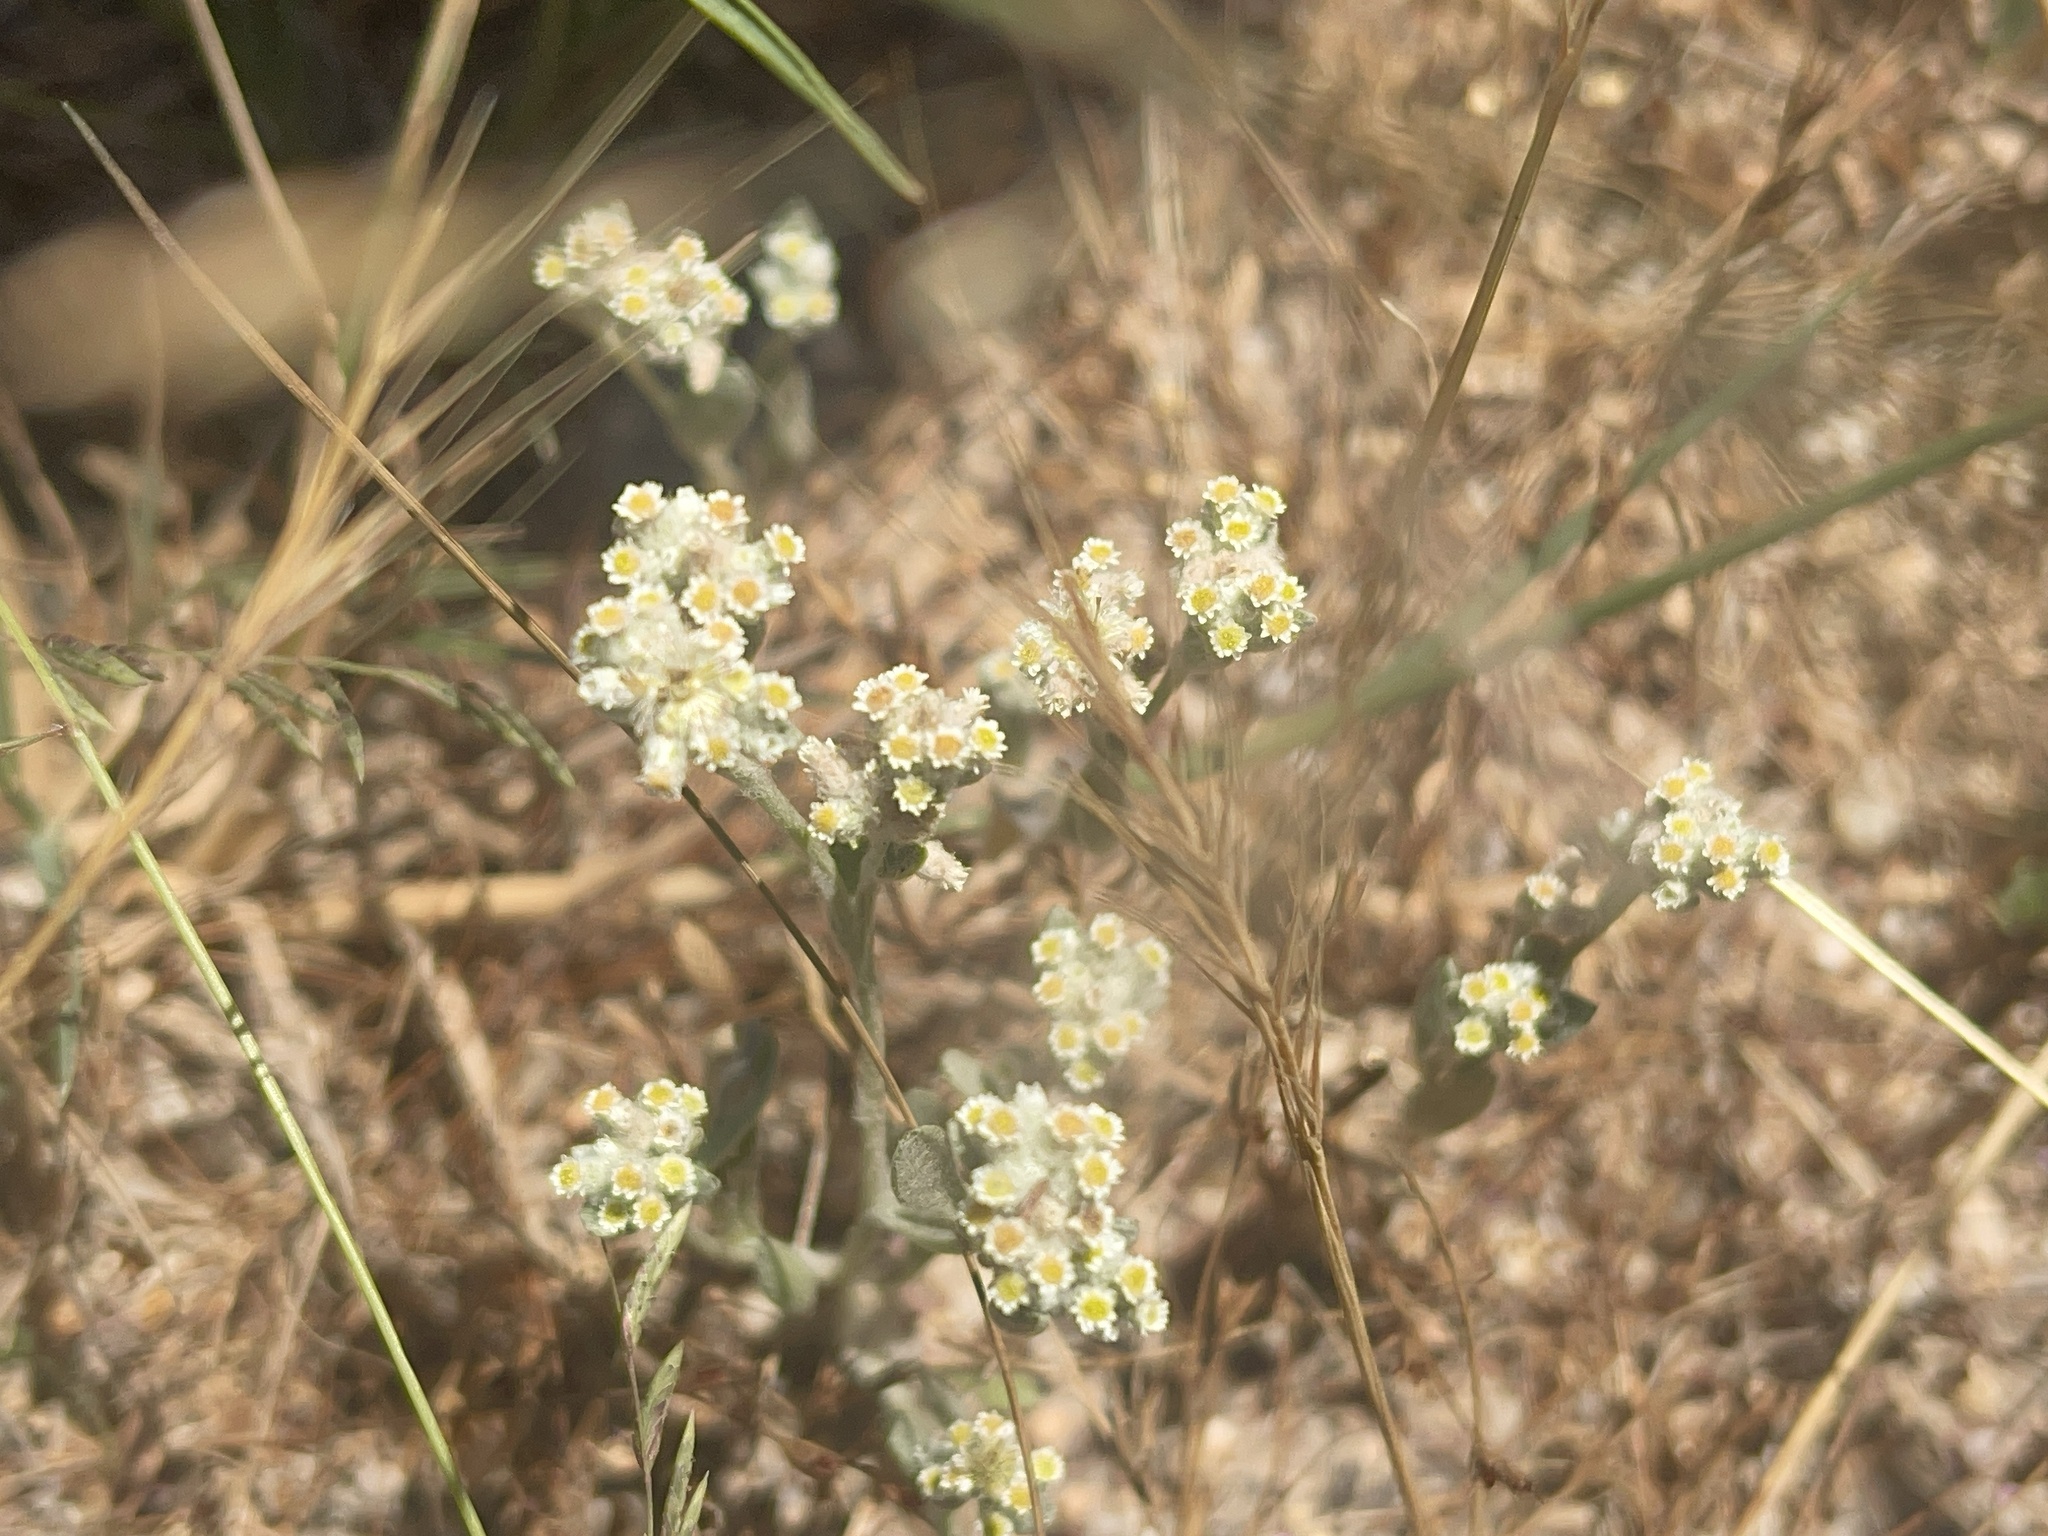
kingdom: Plantae
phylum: Tracheophyta
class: Magnoliopsida
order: Asterales
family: Asteraceae
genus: Vellereophyton
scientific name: Vellereophyton dealbatum
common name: White-cudweed
